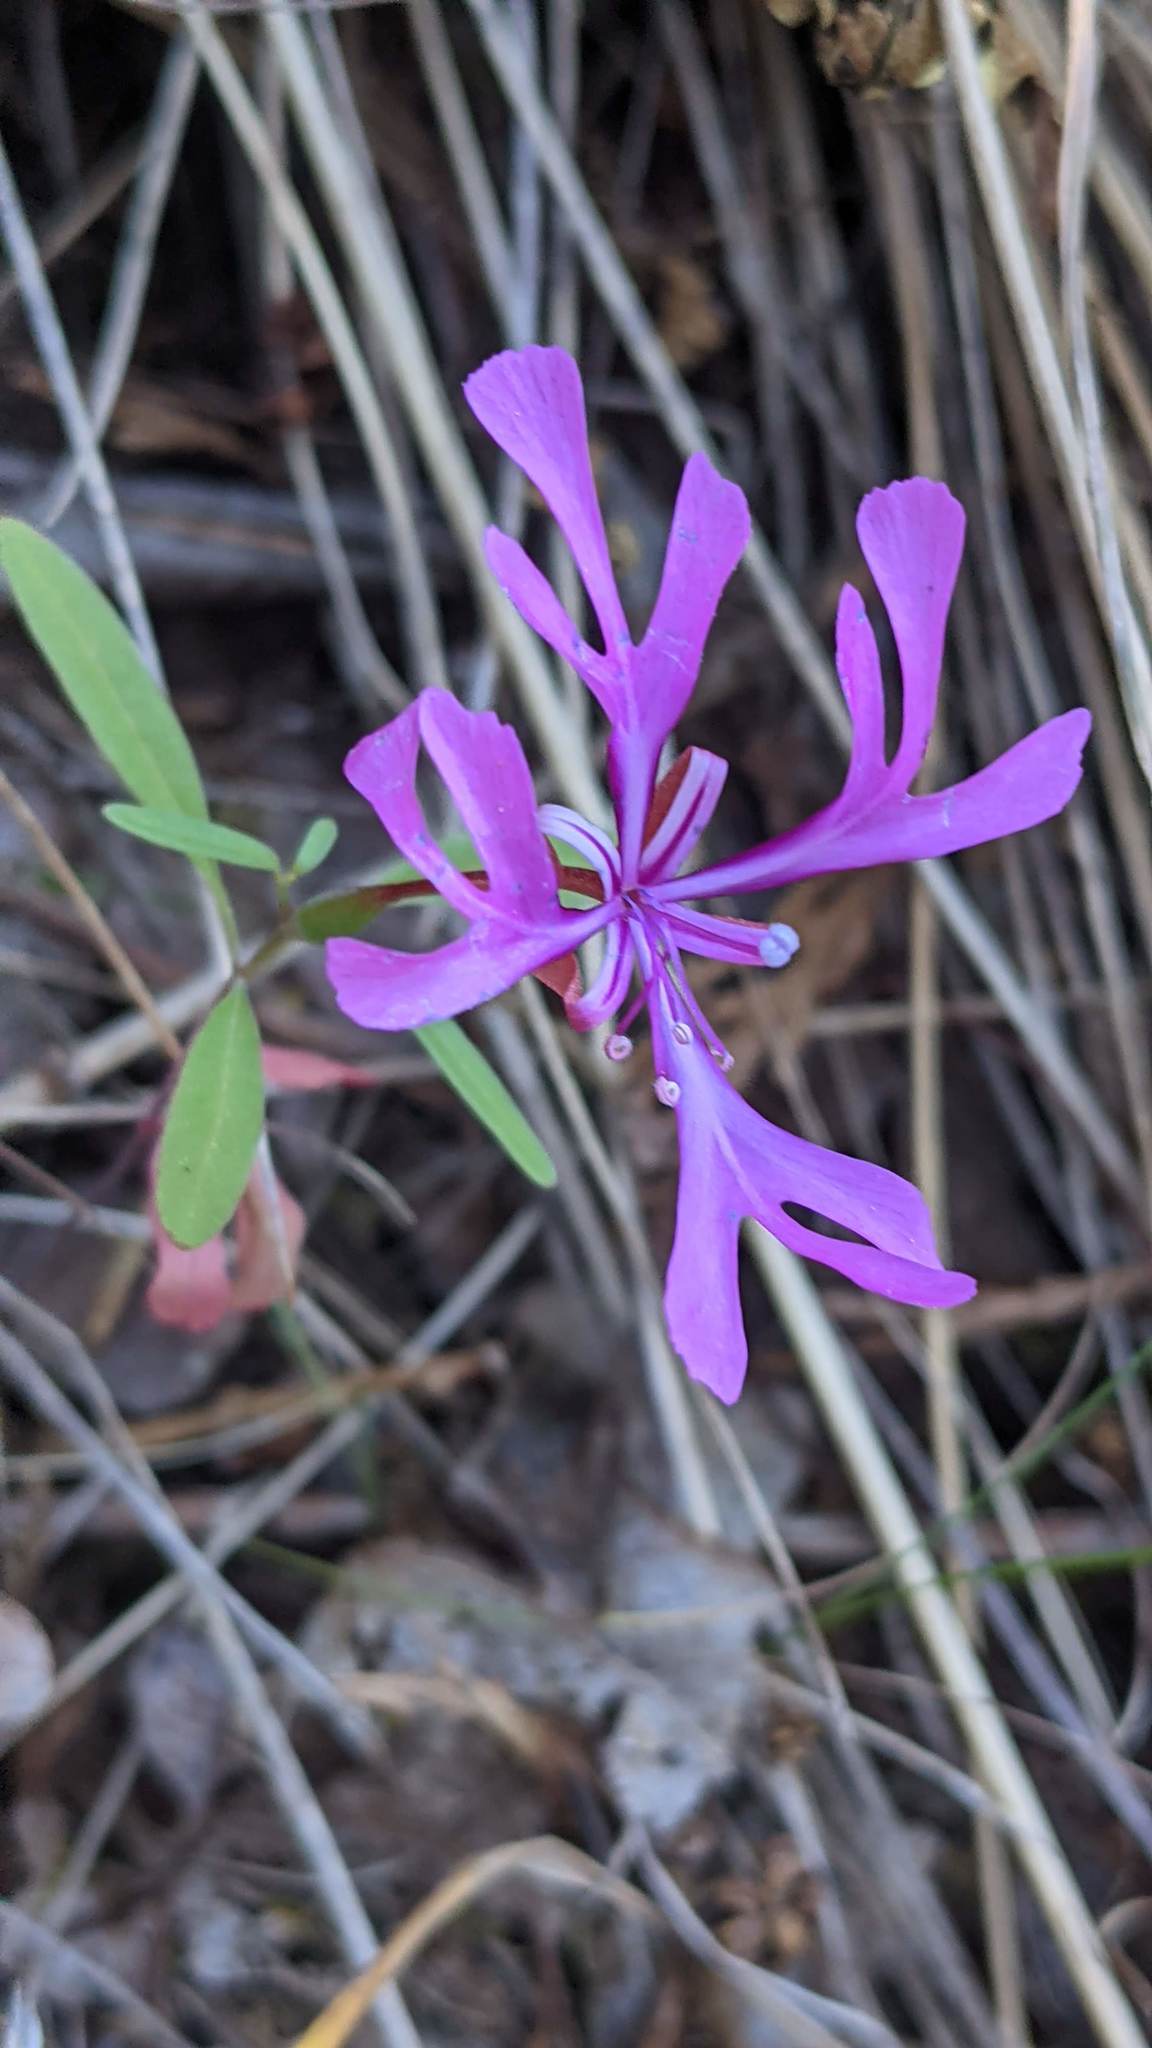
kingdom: Plantae
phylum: Tracheophyta
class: Magnoliopsida
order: Myrtales
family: Onagraceae
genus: Clarkia
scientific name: Clarkia concinna
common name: Red-ribbons
